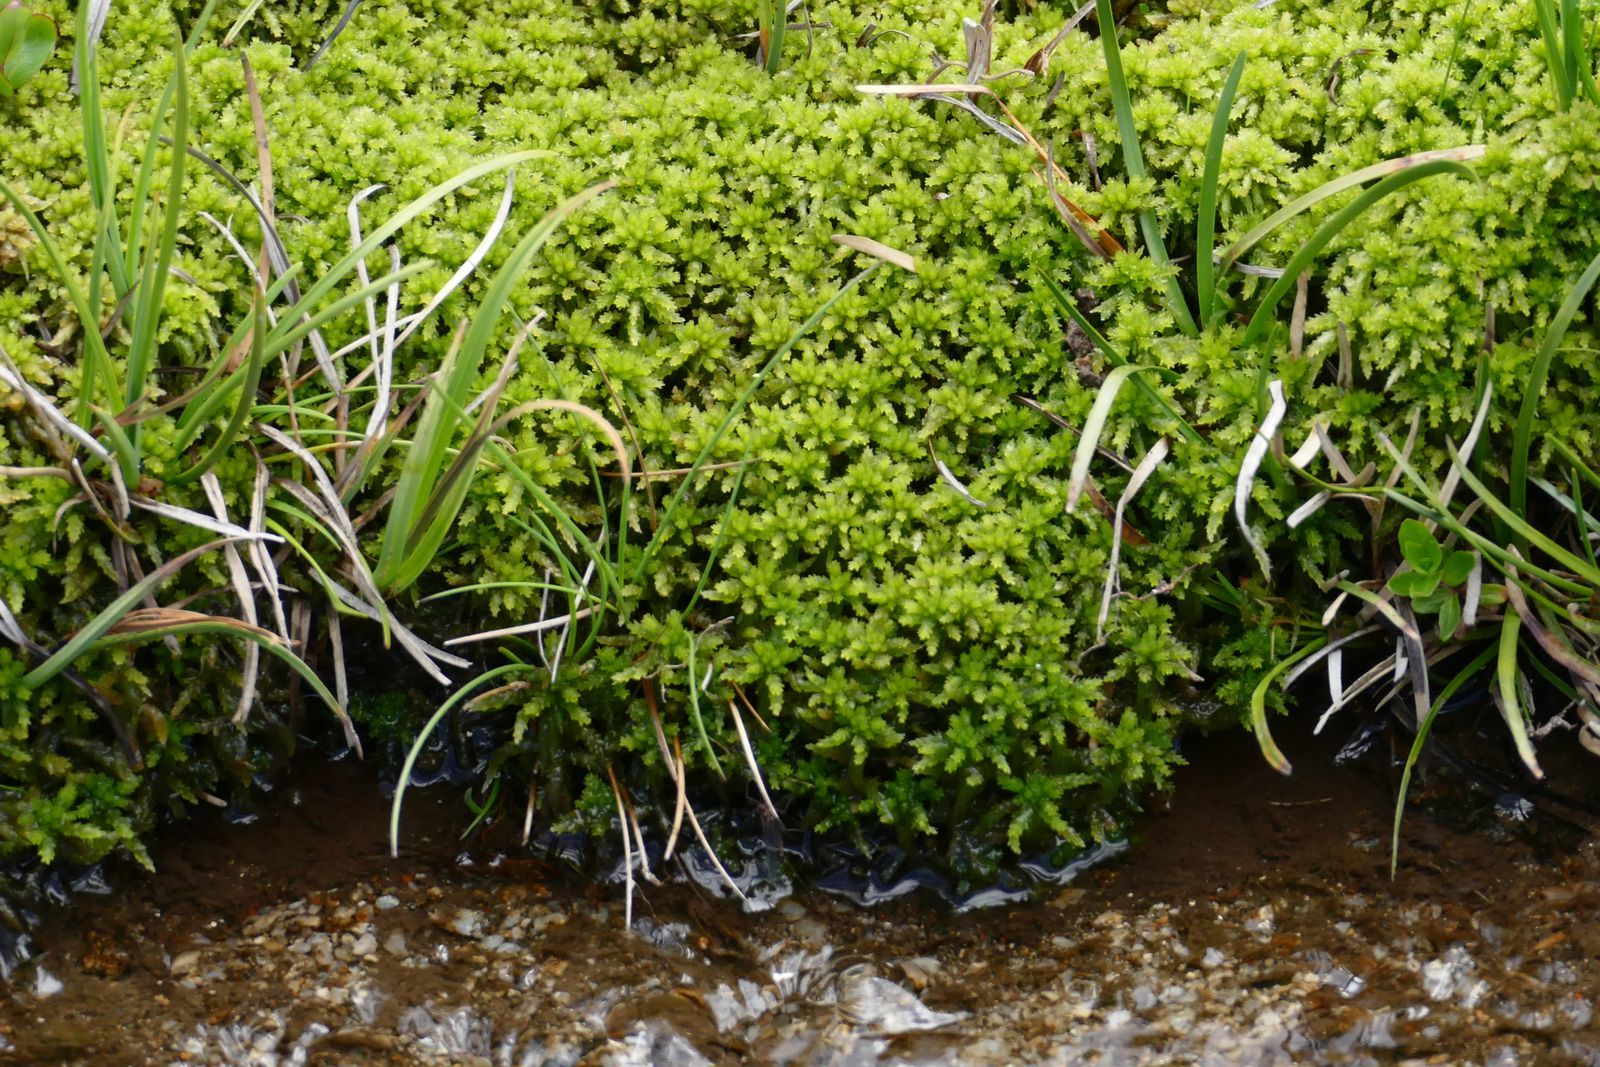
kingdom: Plantae
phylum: Bryophyta
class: Sphagnopsida
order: Sphagnales
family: Sphagnaceae
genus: Sphagnum
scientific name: Sphagnum cristatum
